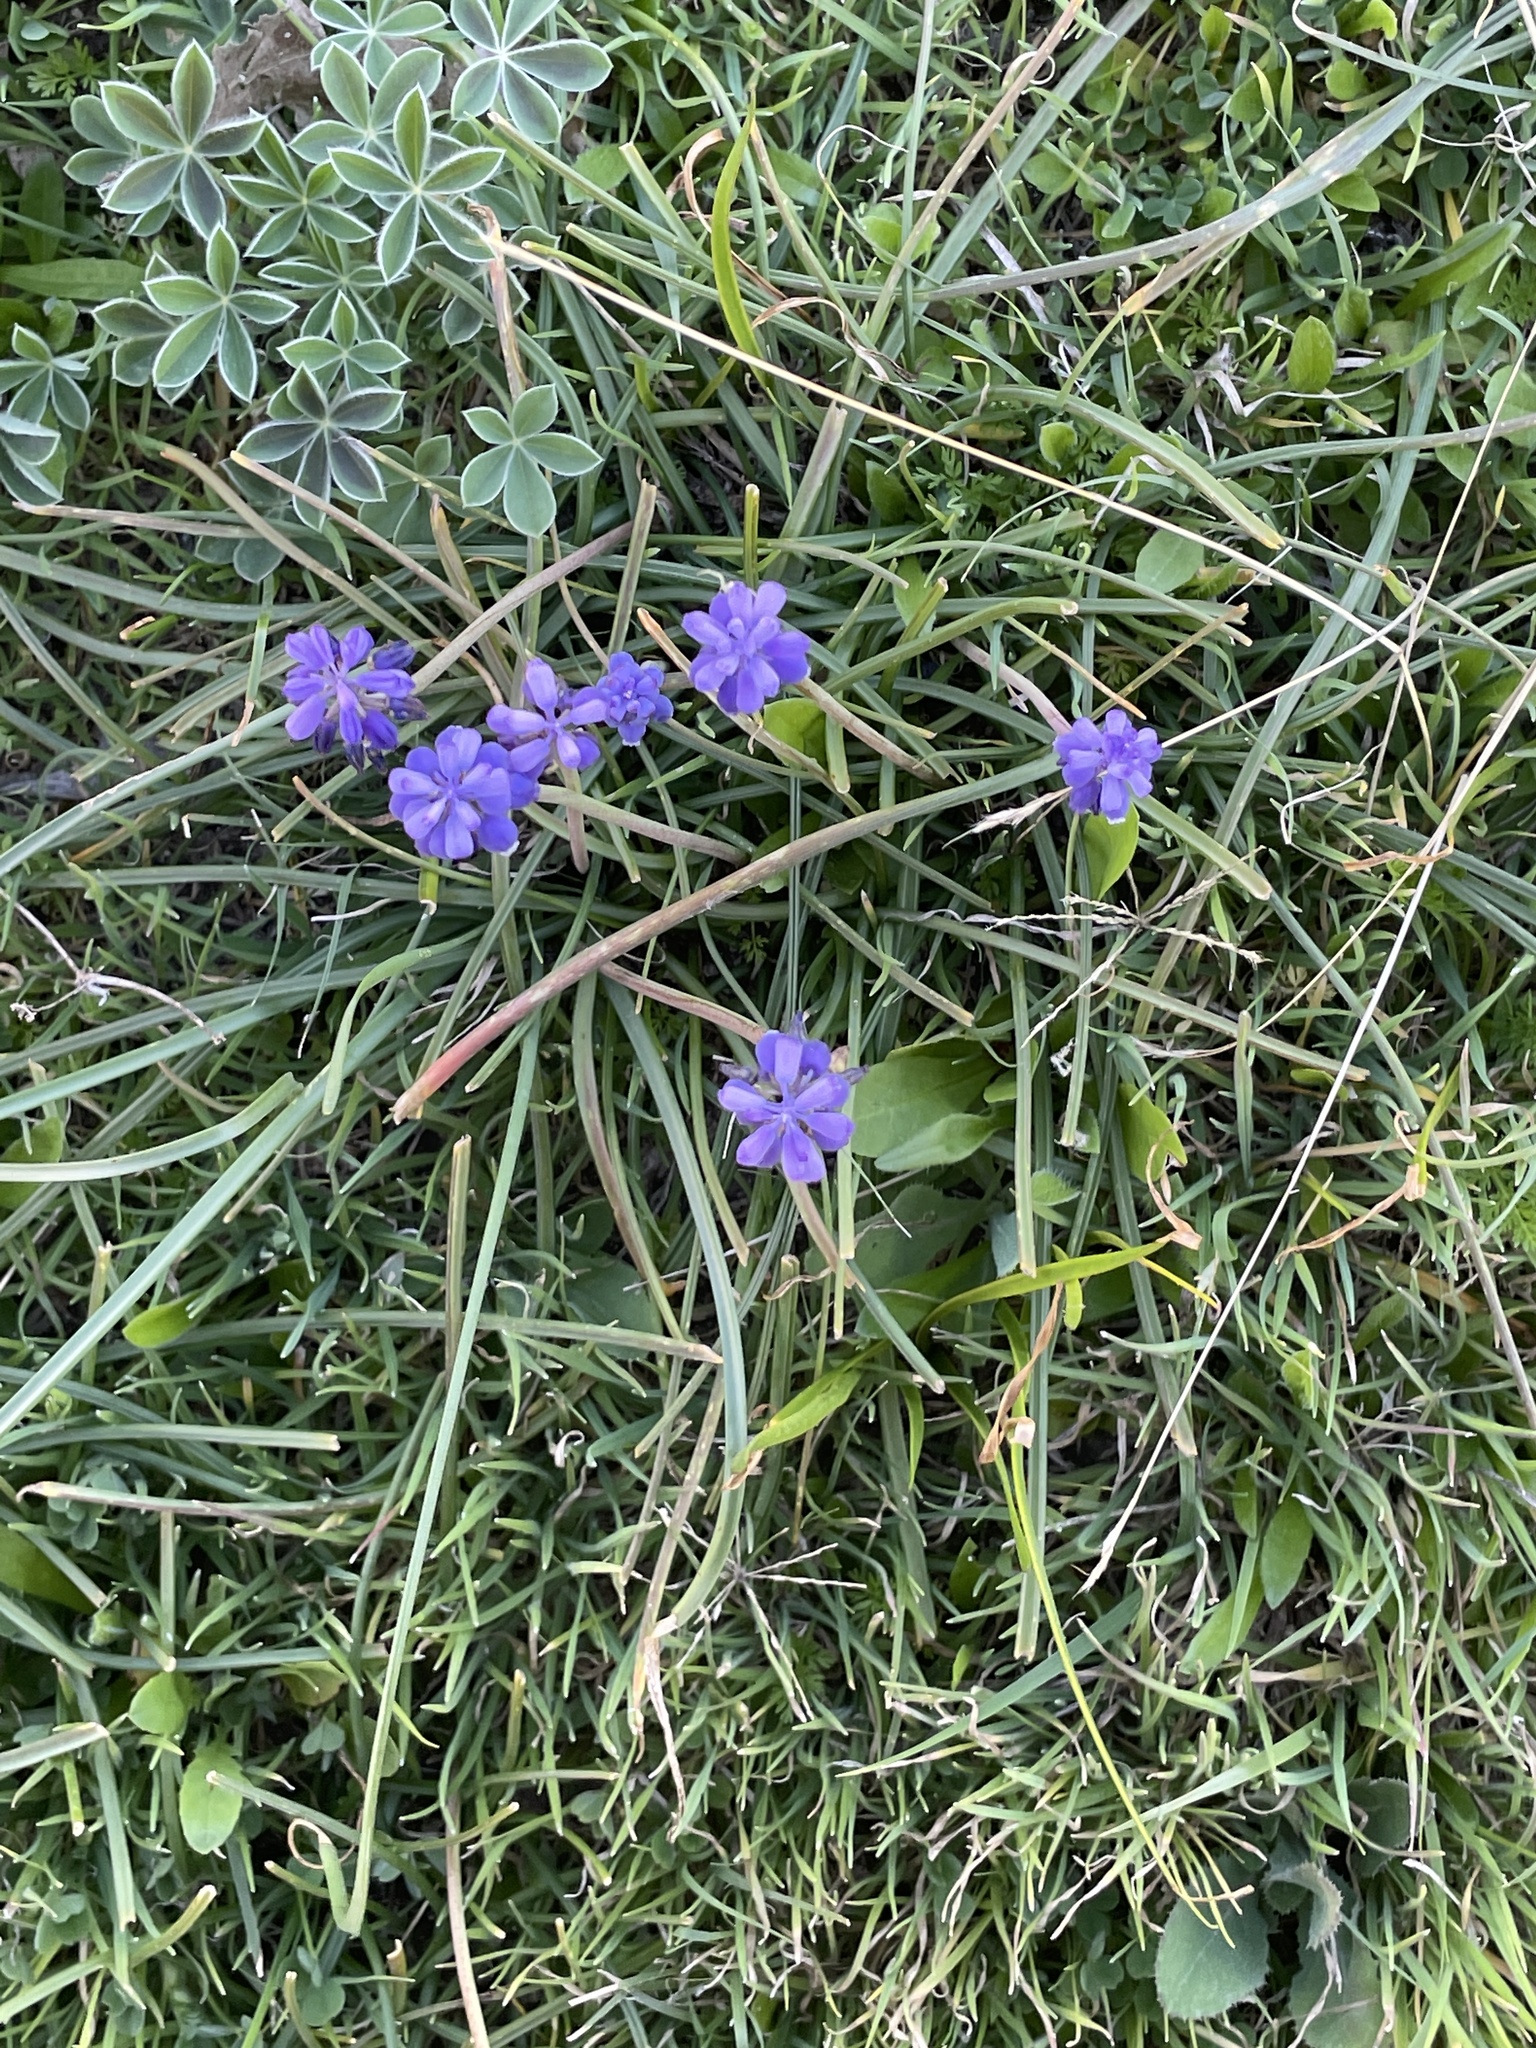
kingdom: Plantae
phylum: Tracheophyta
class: Liliopsida
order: Asparagales
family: Asparagaceae
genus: Muscari
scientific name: Muscari neglectum
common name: Grape-hyacinth
